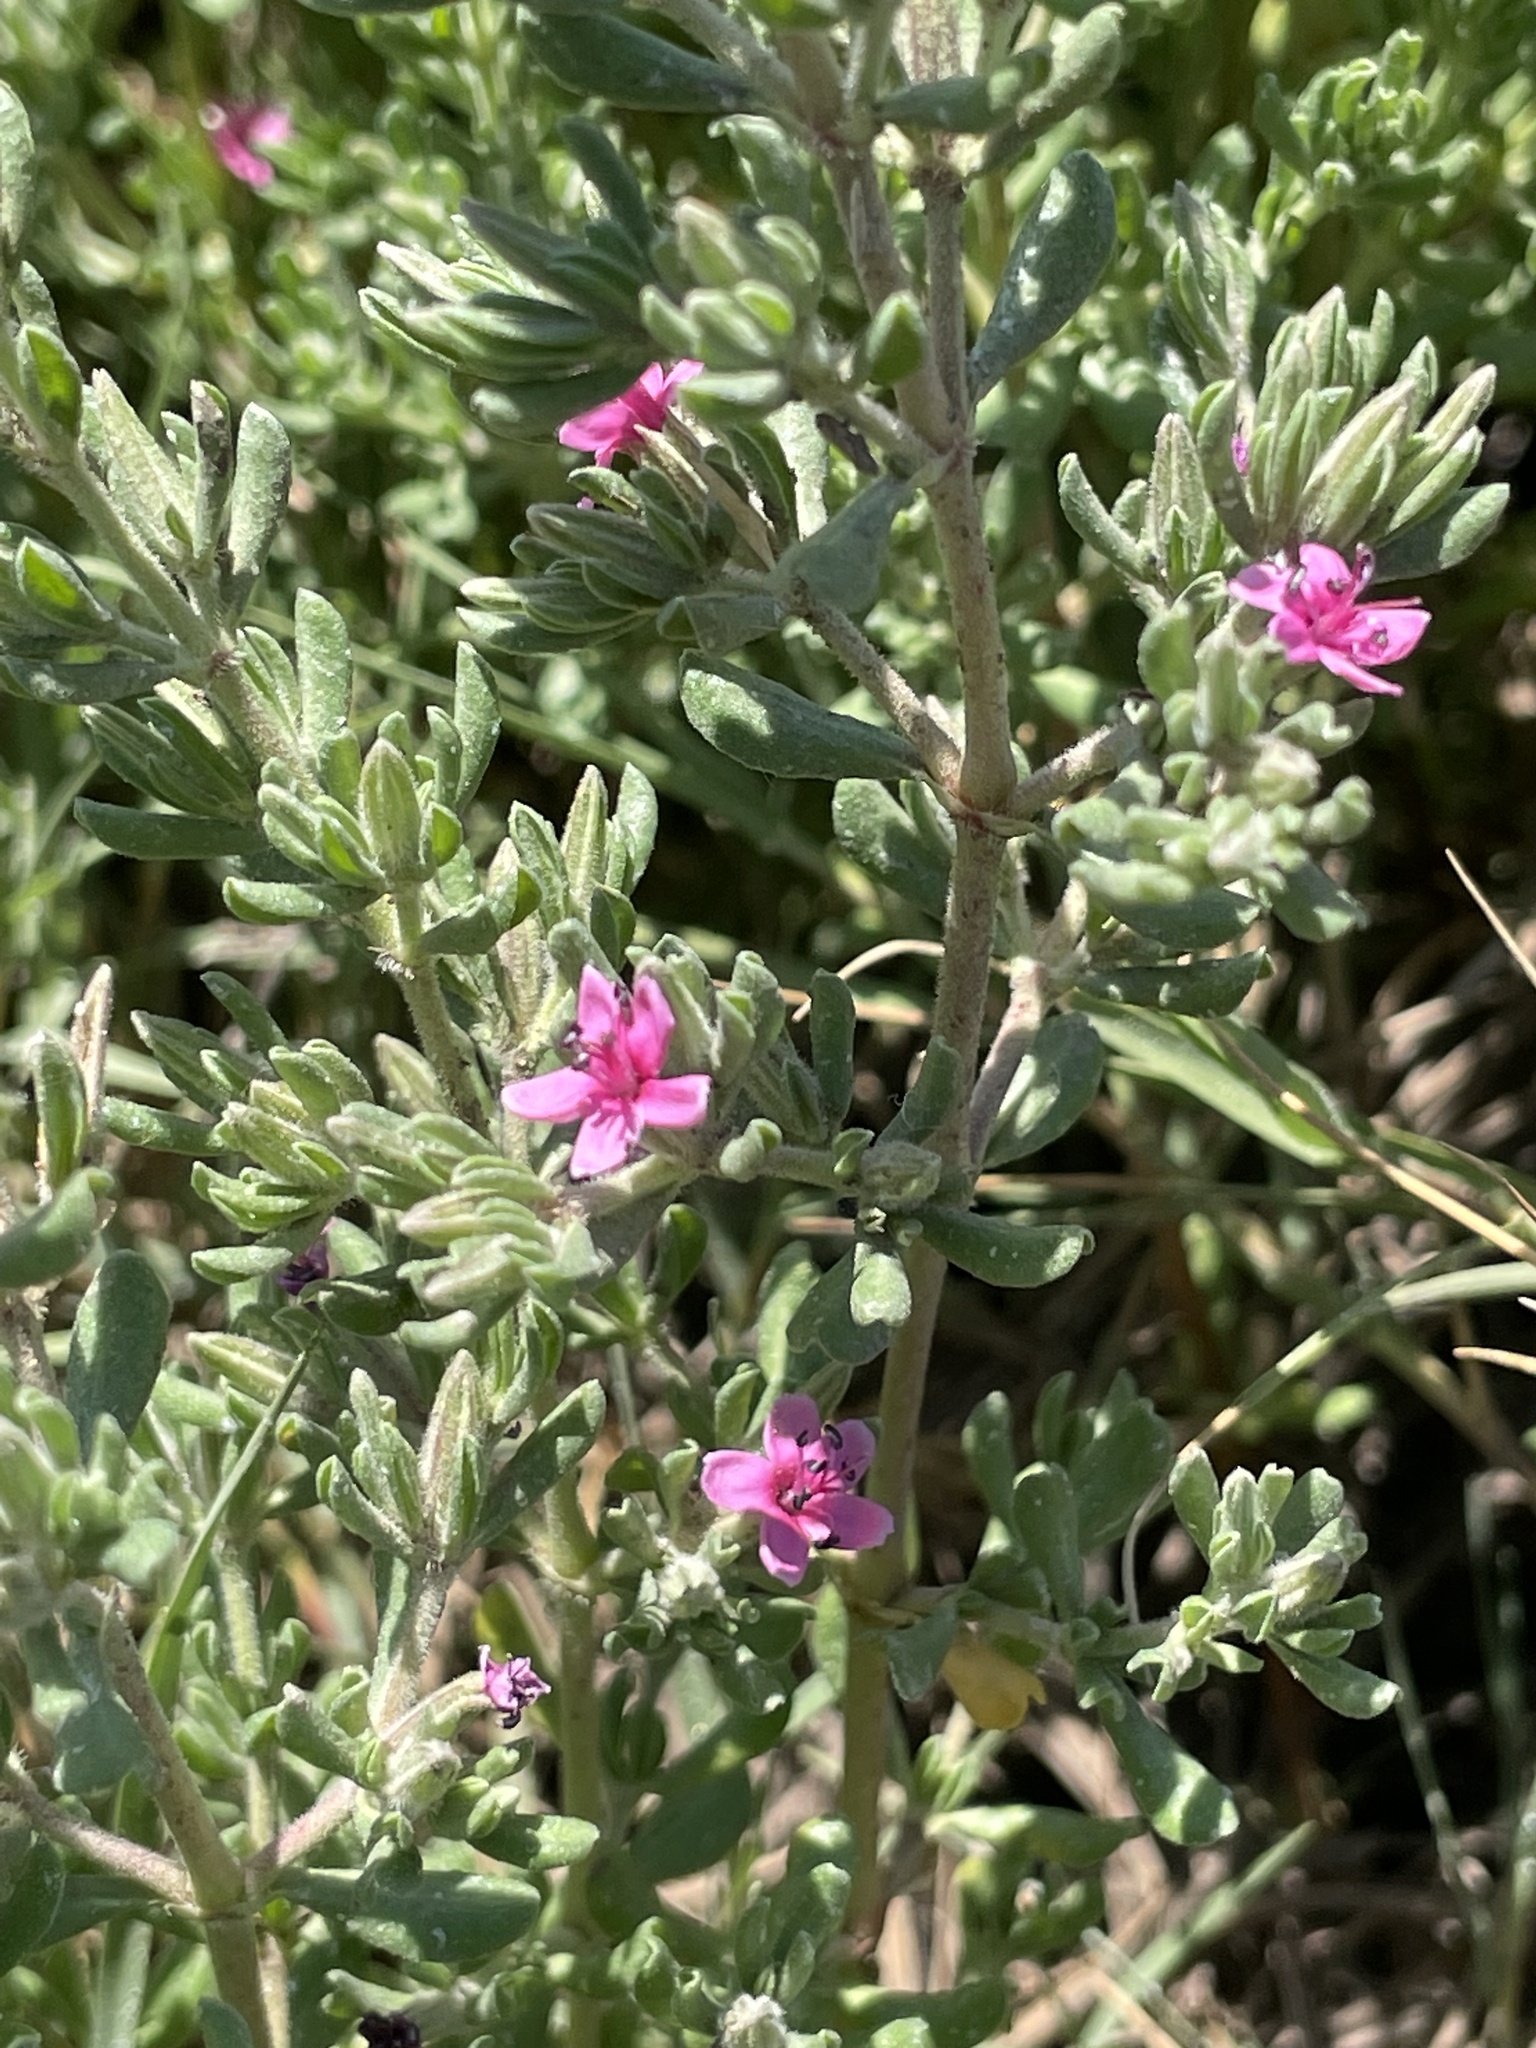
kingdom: Plantae
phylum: Tracheophyta
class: Magnoliopsida
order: Caryophyllales
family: Frankeniaceae
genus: Frankenia
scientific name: Frankenia salina
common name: Alkali seaheath
